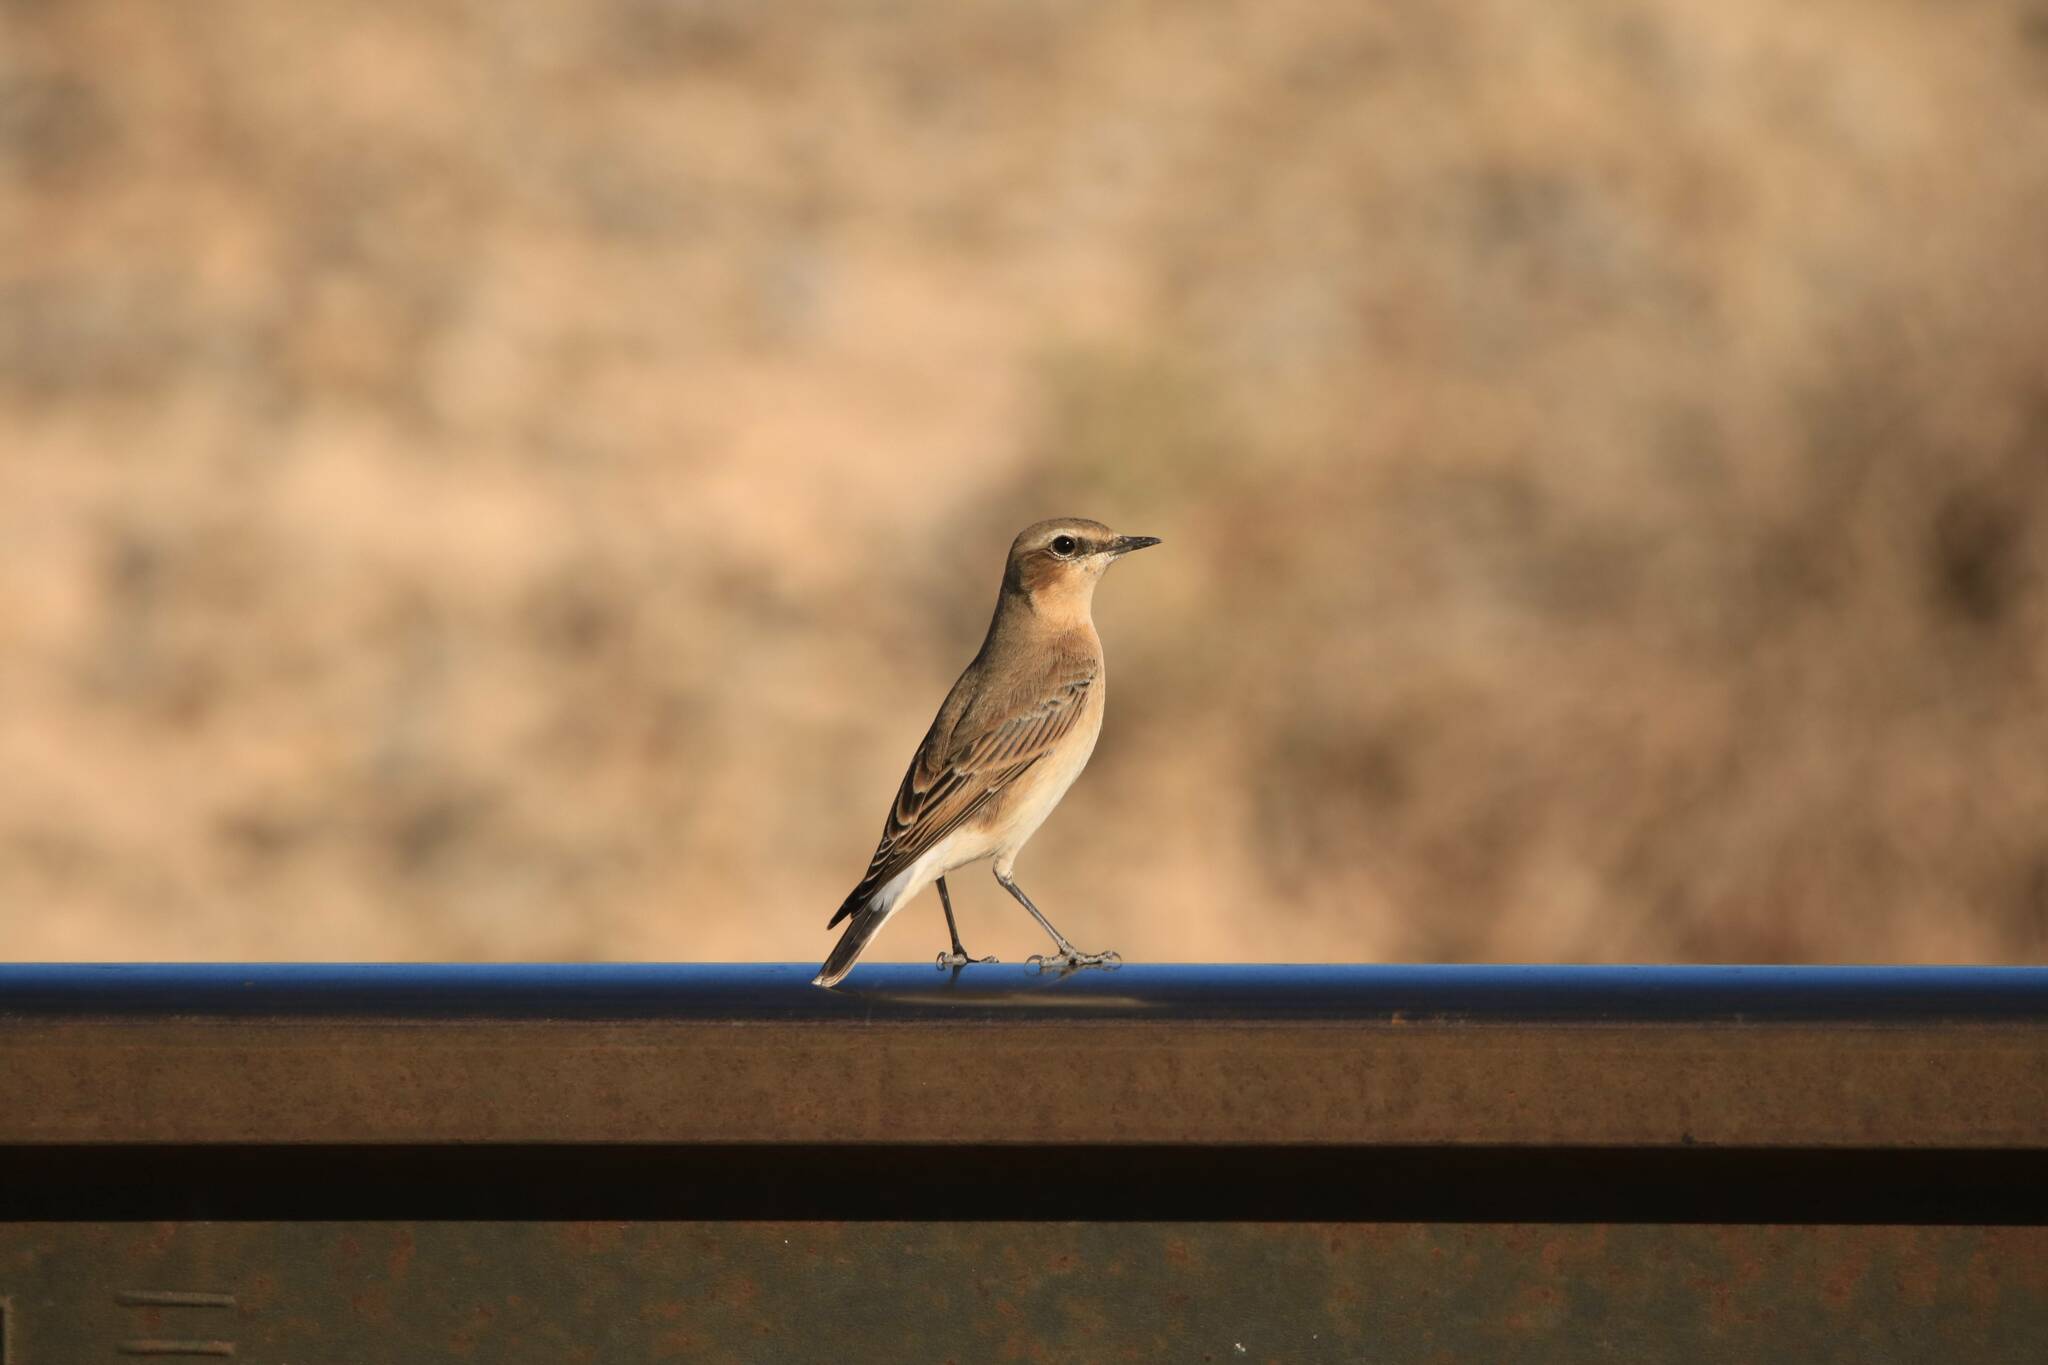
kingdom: Animalia
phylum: Chordata
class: Aves
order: Passeriformes
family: Muscicapidae
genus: Oenanthe
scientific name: Oenanthe oenanthe
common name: Northern wheatear
